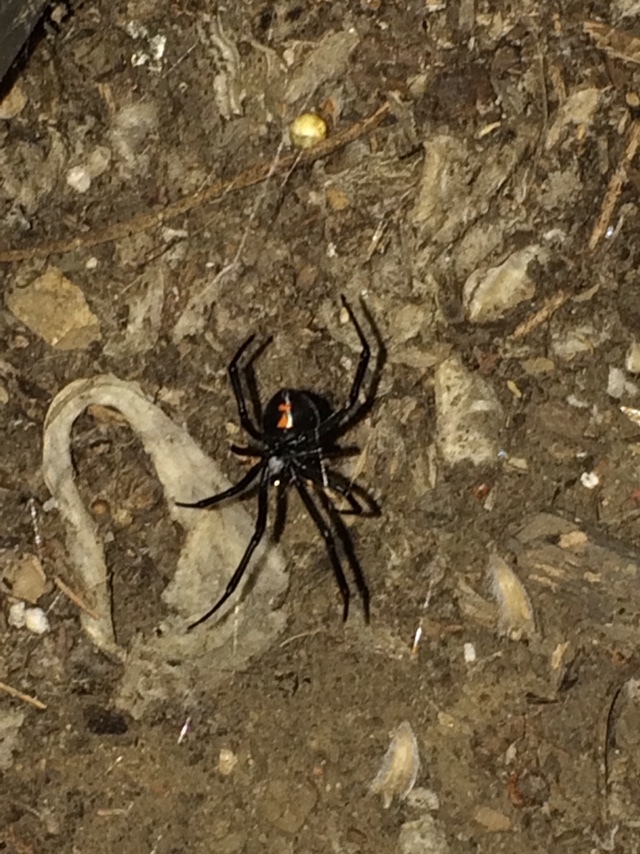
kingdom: Animalia
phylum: Arthropoda
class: Arachnida
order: Araneae
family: Theridiidae
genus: Latrodectus
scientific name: Latrodectus hesperus
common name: Western black widow
